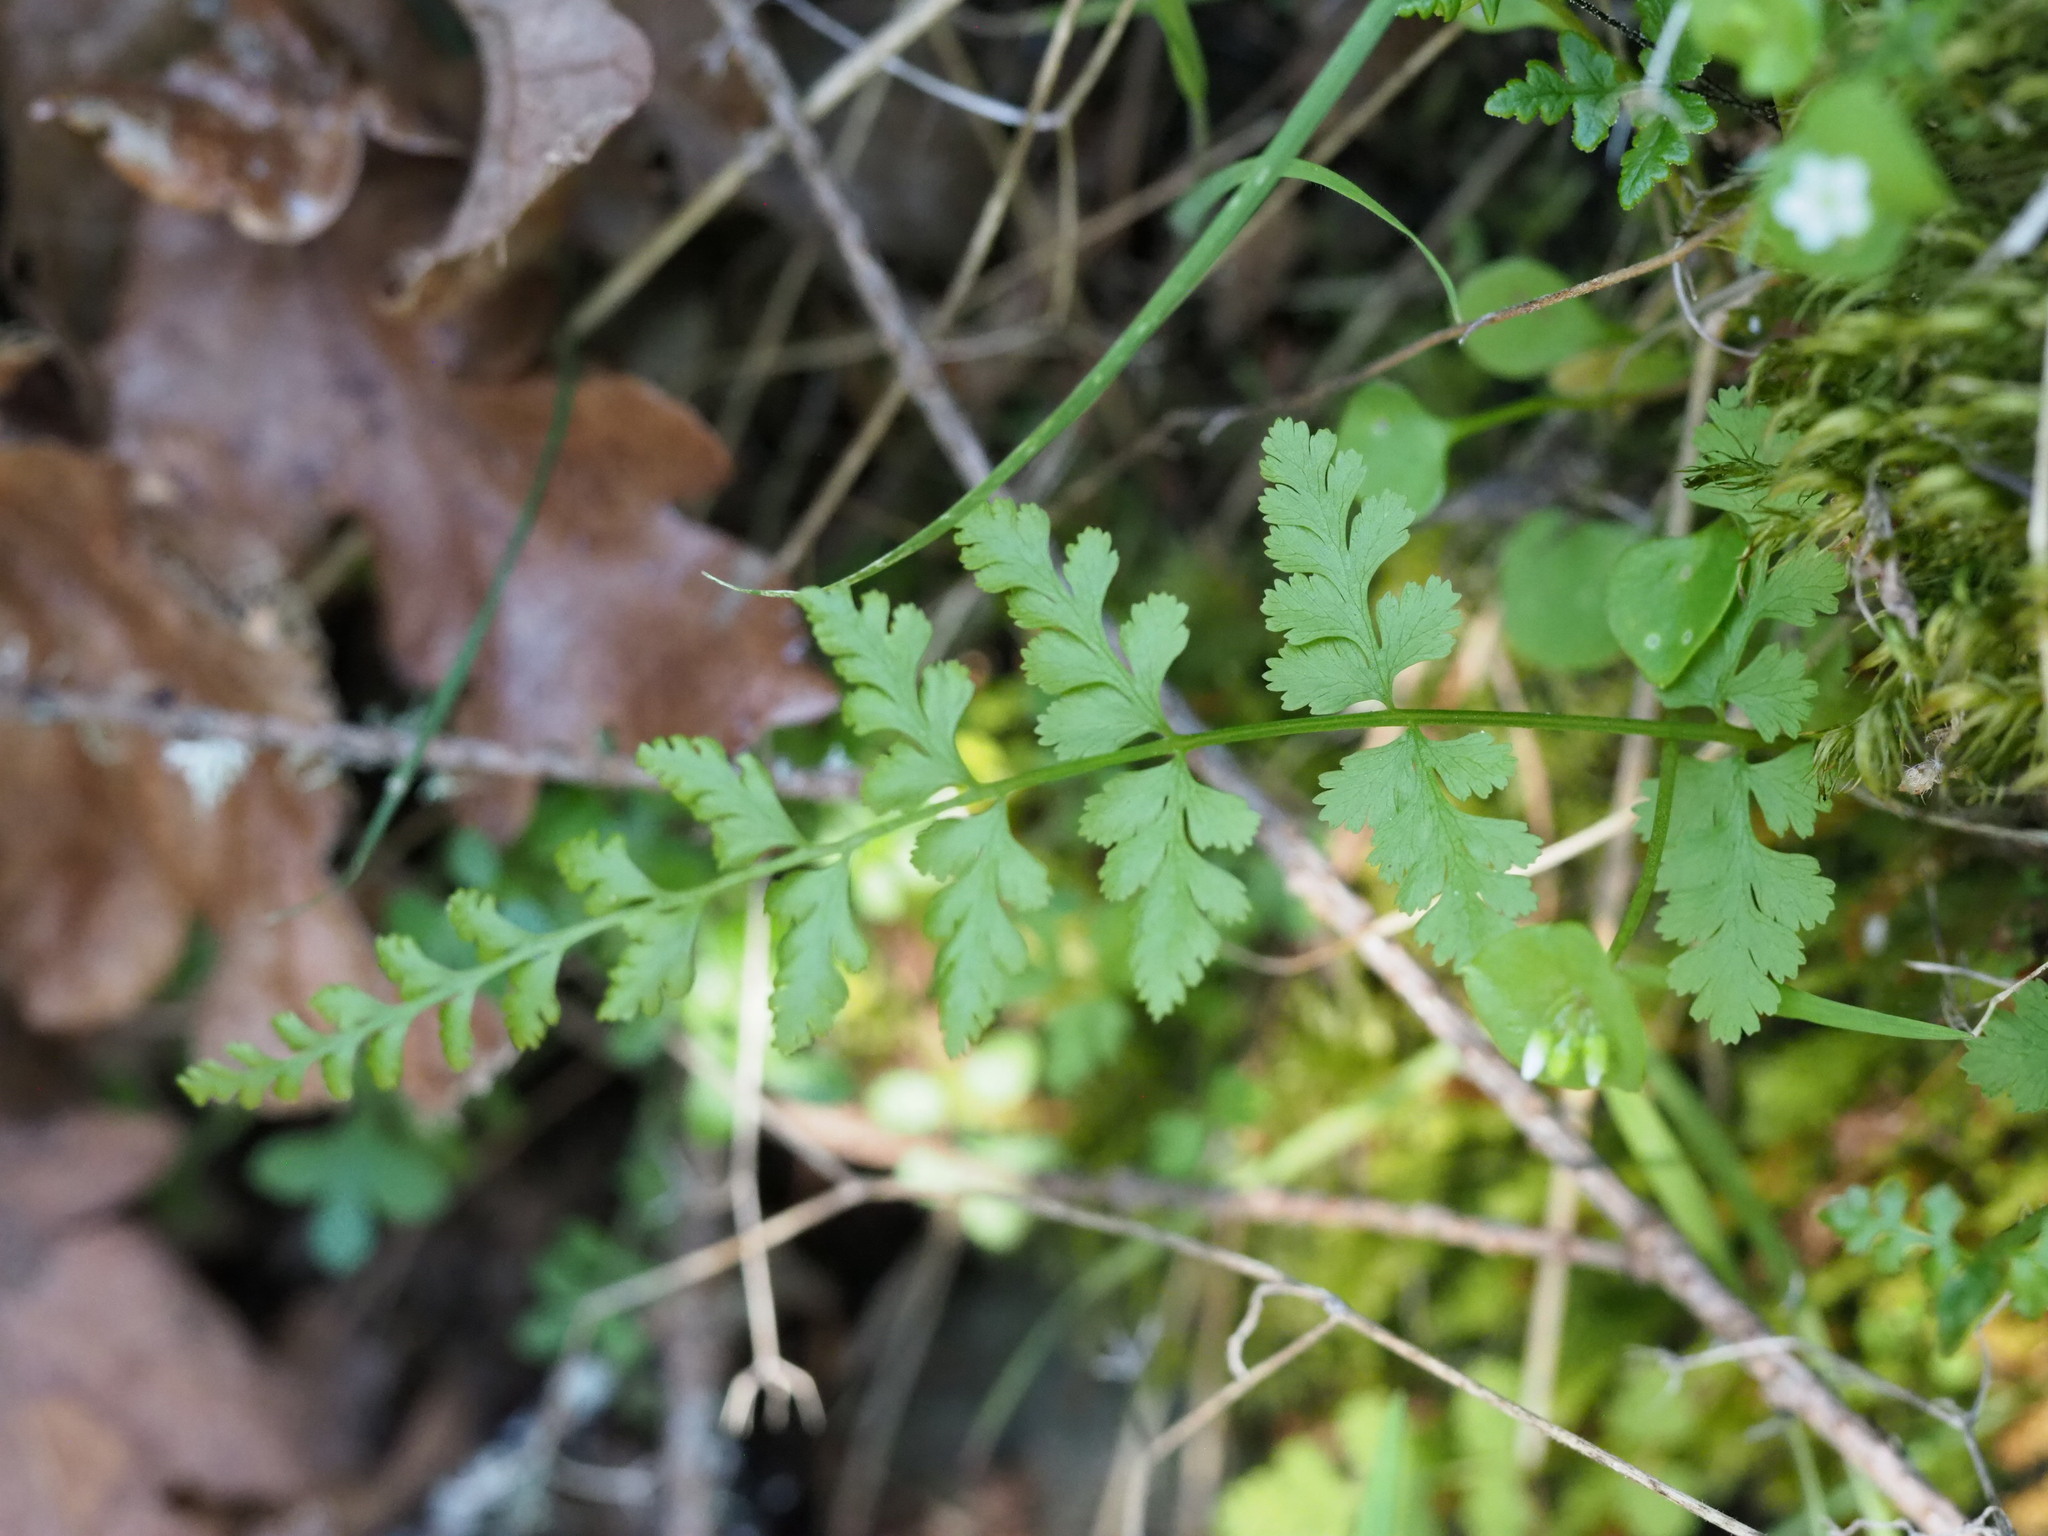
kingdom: Plantae
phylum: Tracheophyta
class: Polypodiopsida
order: Polypodiales
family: Cystopteridaceae
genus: Cystopteris
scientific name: Cystopteris fragilis
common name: Brittle bladder fern
